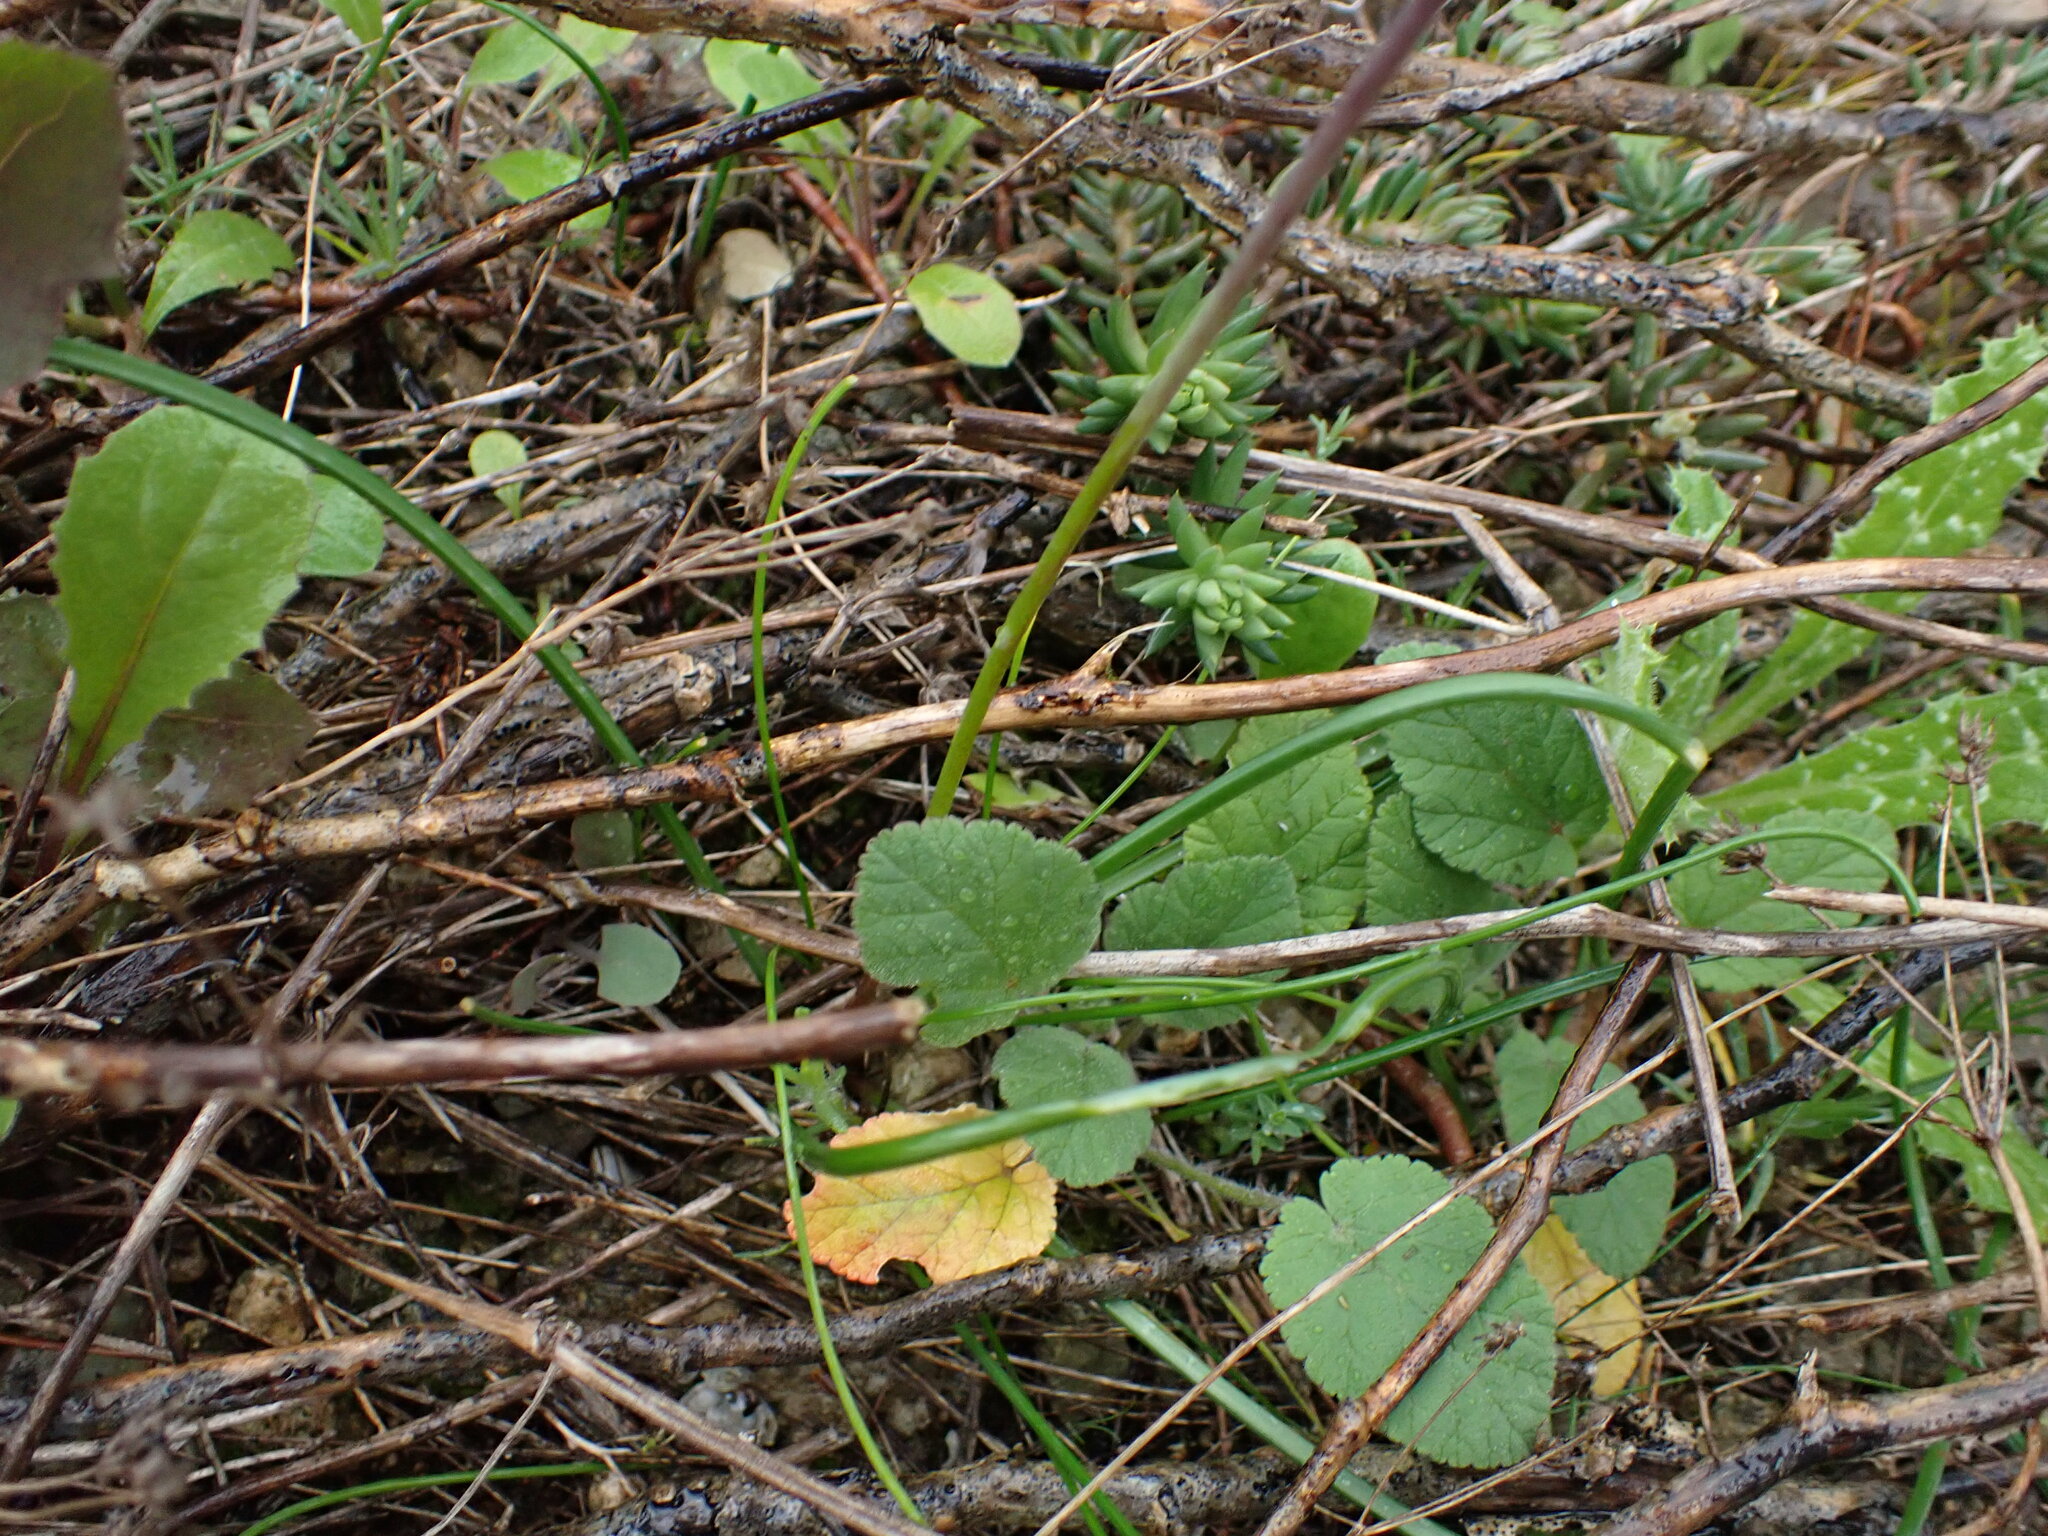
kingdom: Plantae
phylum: Tracheophyta
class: Liliopsida
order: Asparagales
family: Asparagaceae
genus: Muscari
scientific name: Muscari neglectum
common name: Grape-hyacinth
